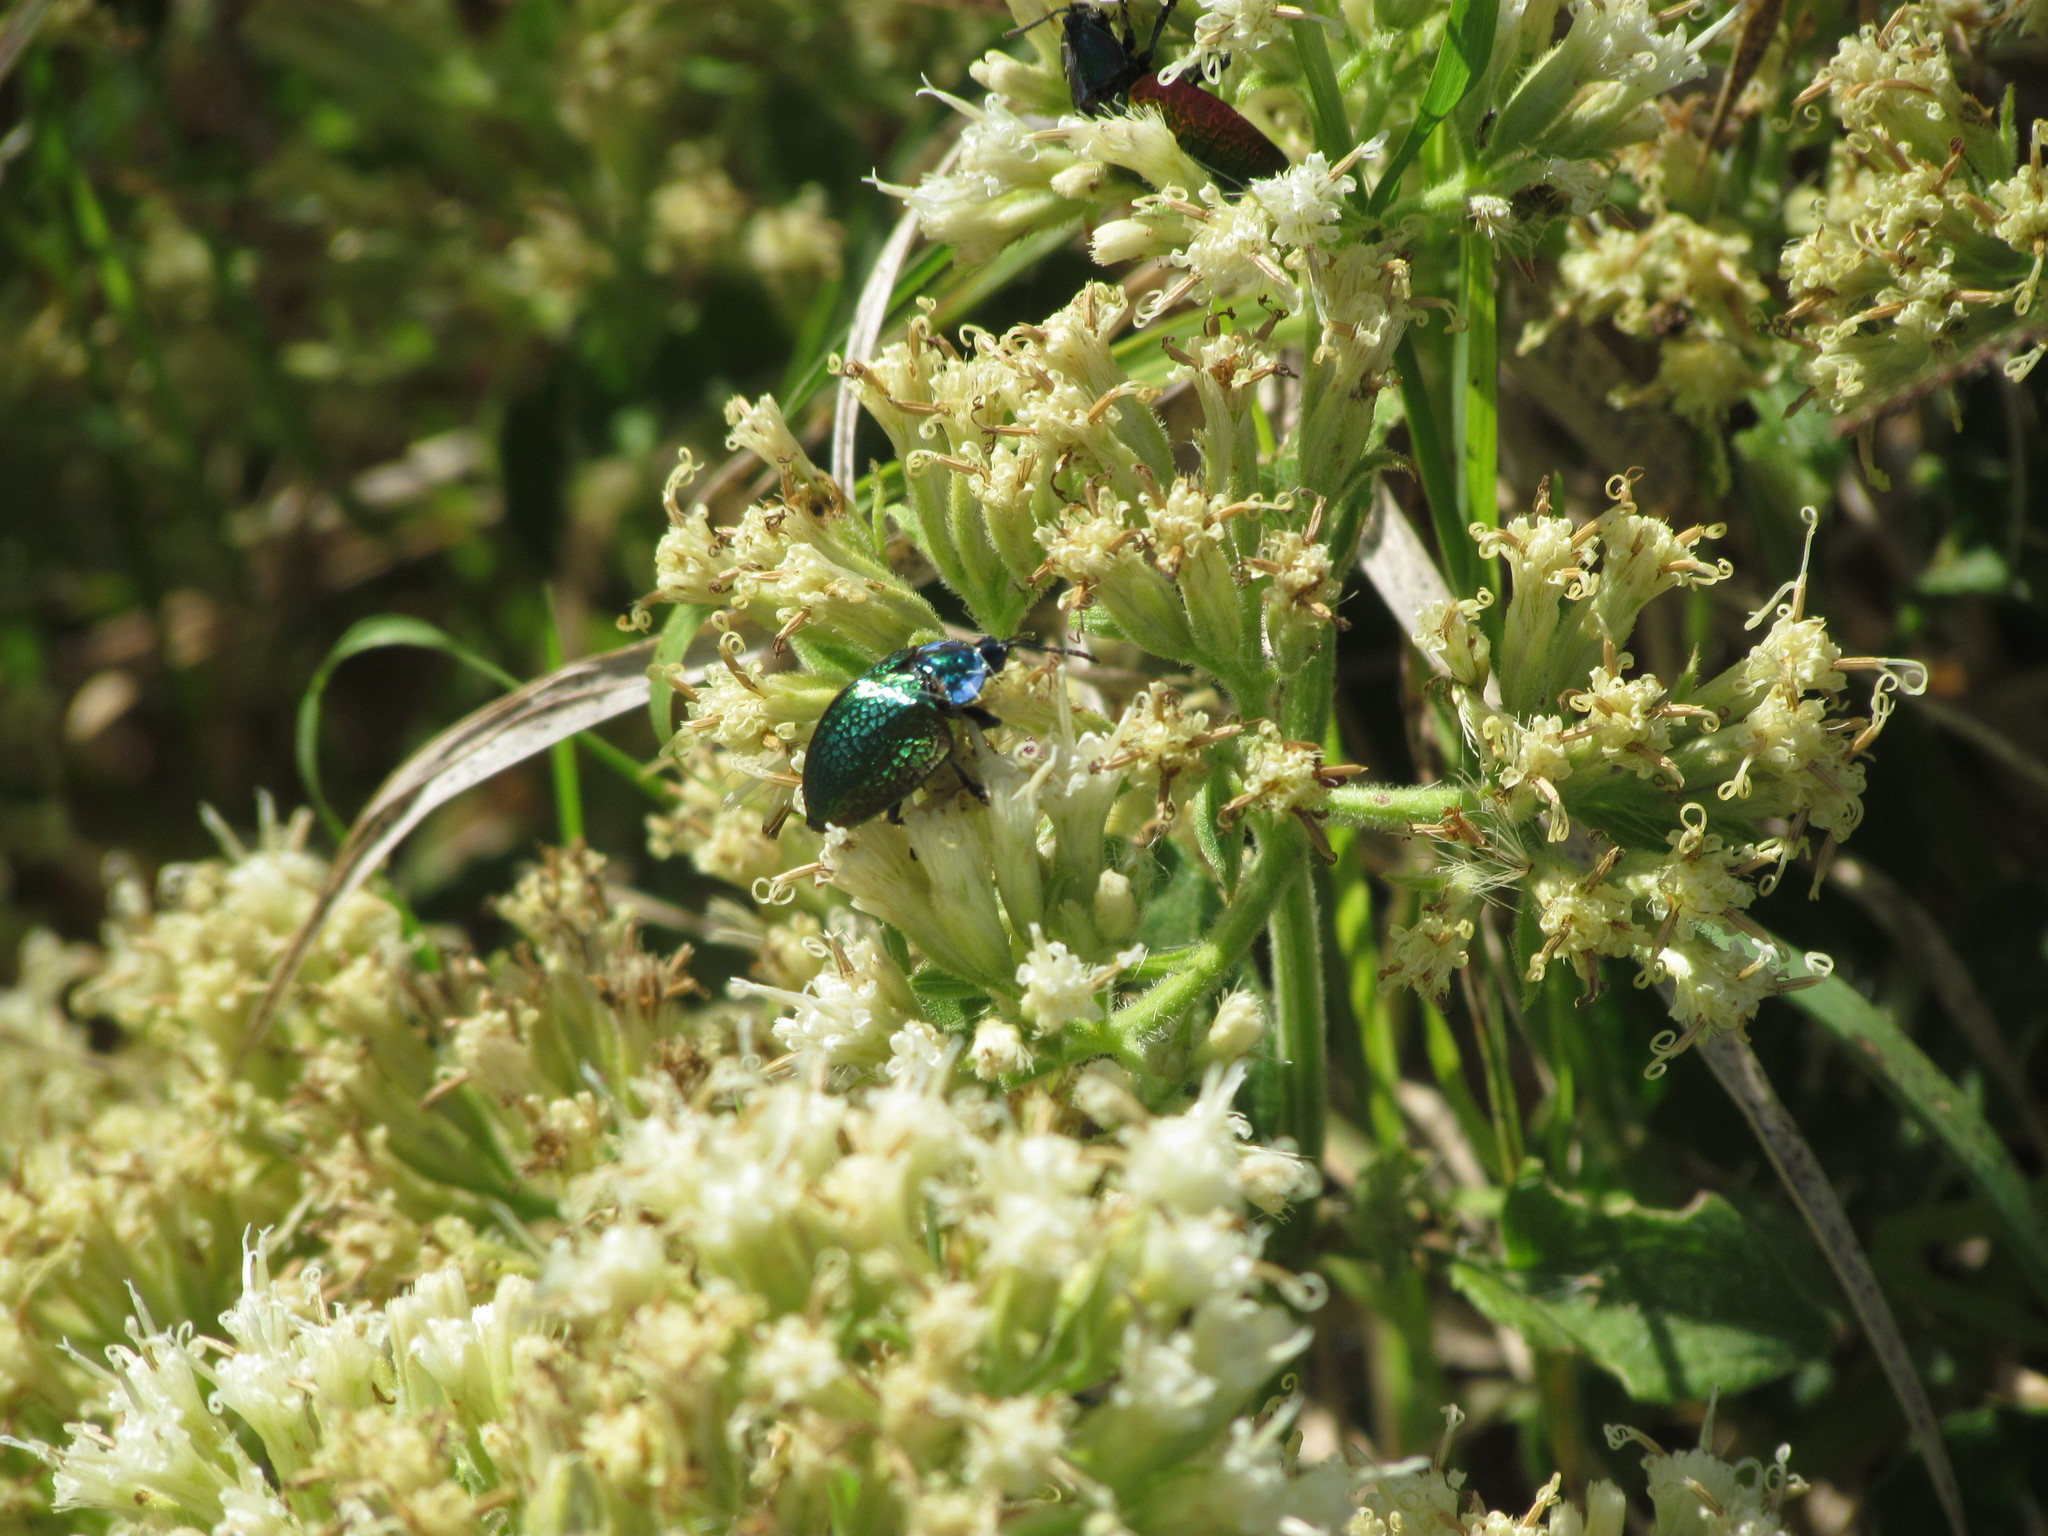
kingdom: Animalia
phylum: Arthropoda
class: Insecta
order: Coleoptera
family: Chrysomelidae
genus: Stolas
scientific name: Stolas festiva
